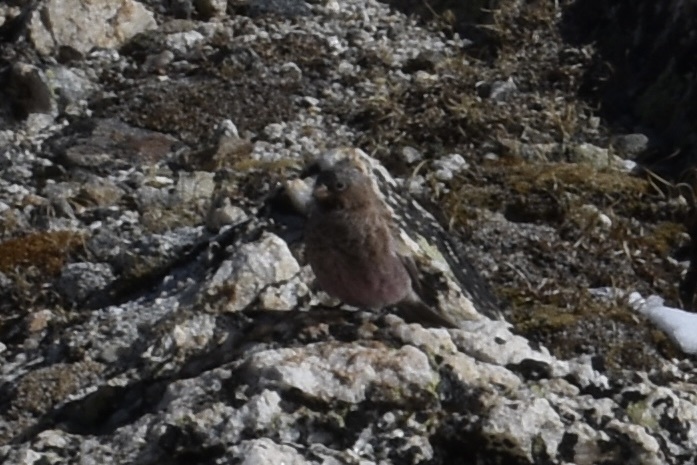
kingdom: Animalia
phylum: Chordata
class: Aves
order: Passeriformes
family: Fringillidae
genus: Leucosticte
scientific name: Leucosticte australis
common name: Brown-capped rosy-finch
